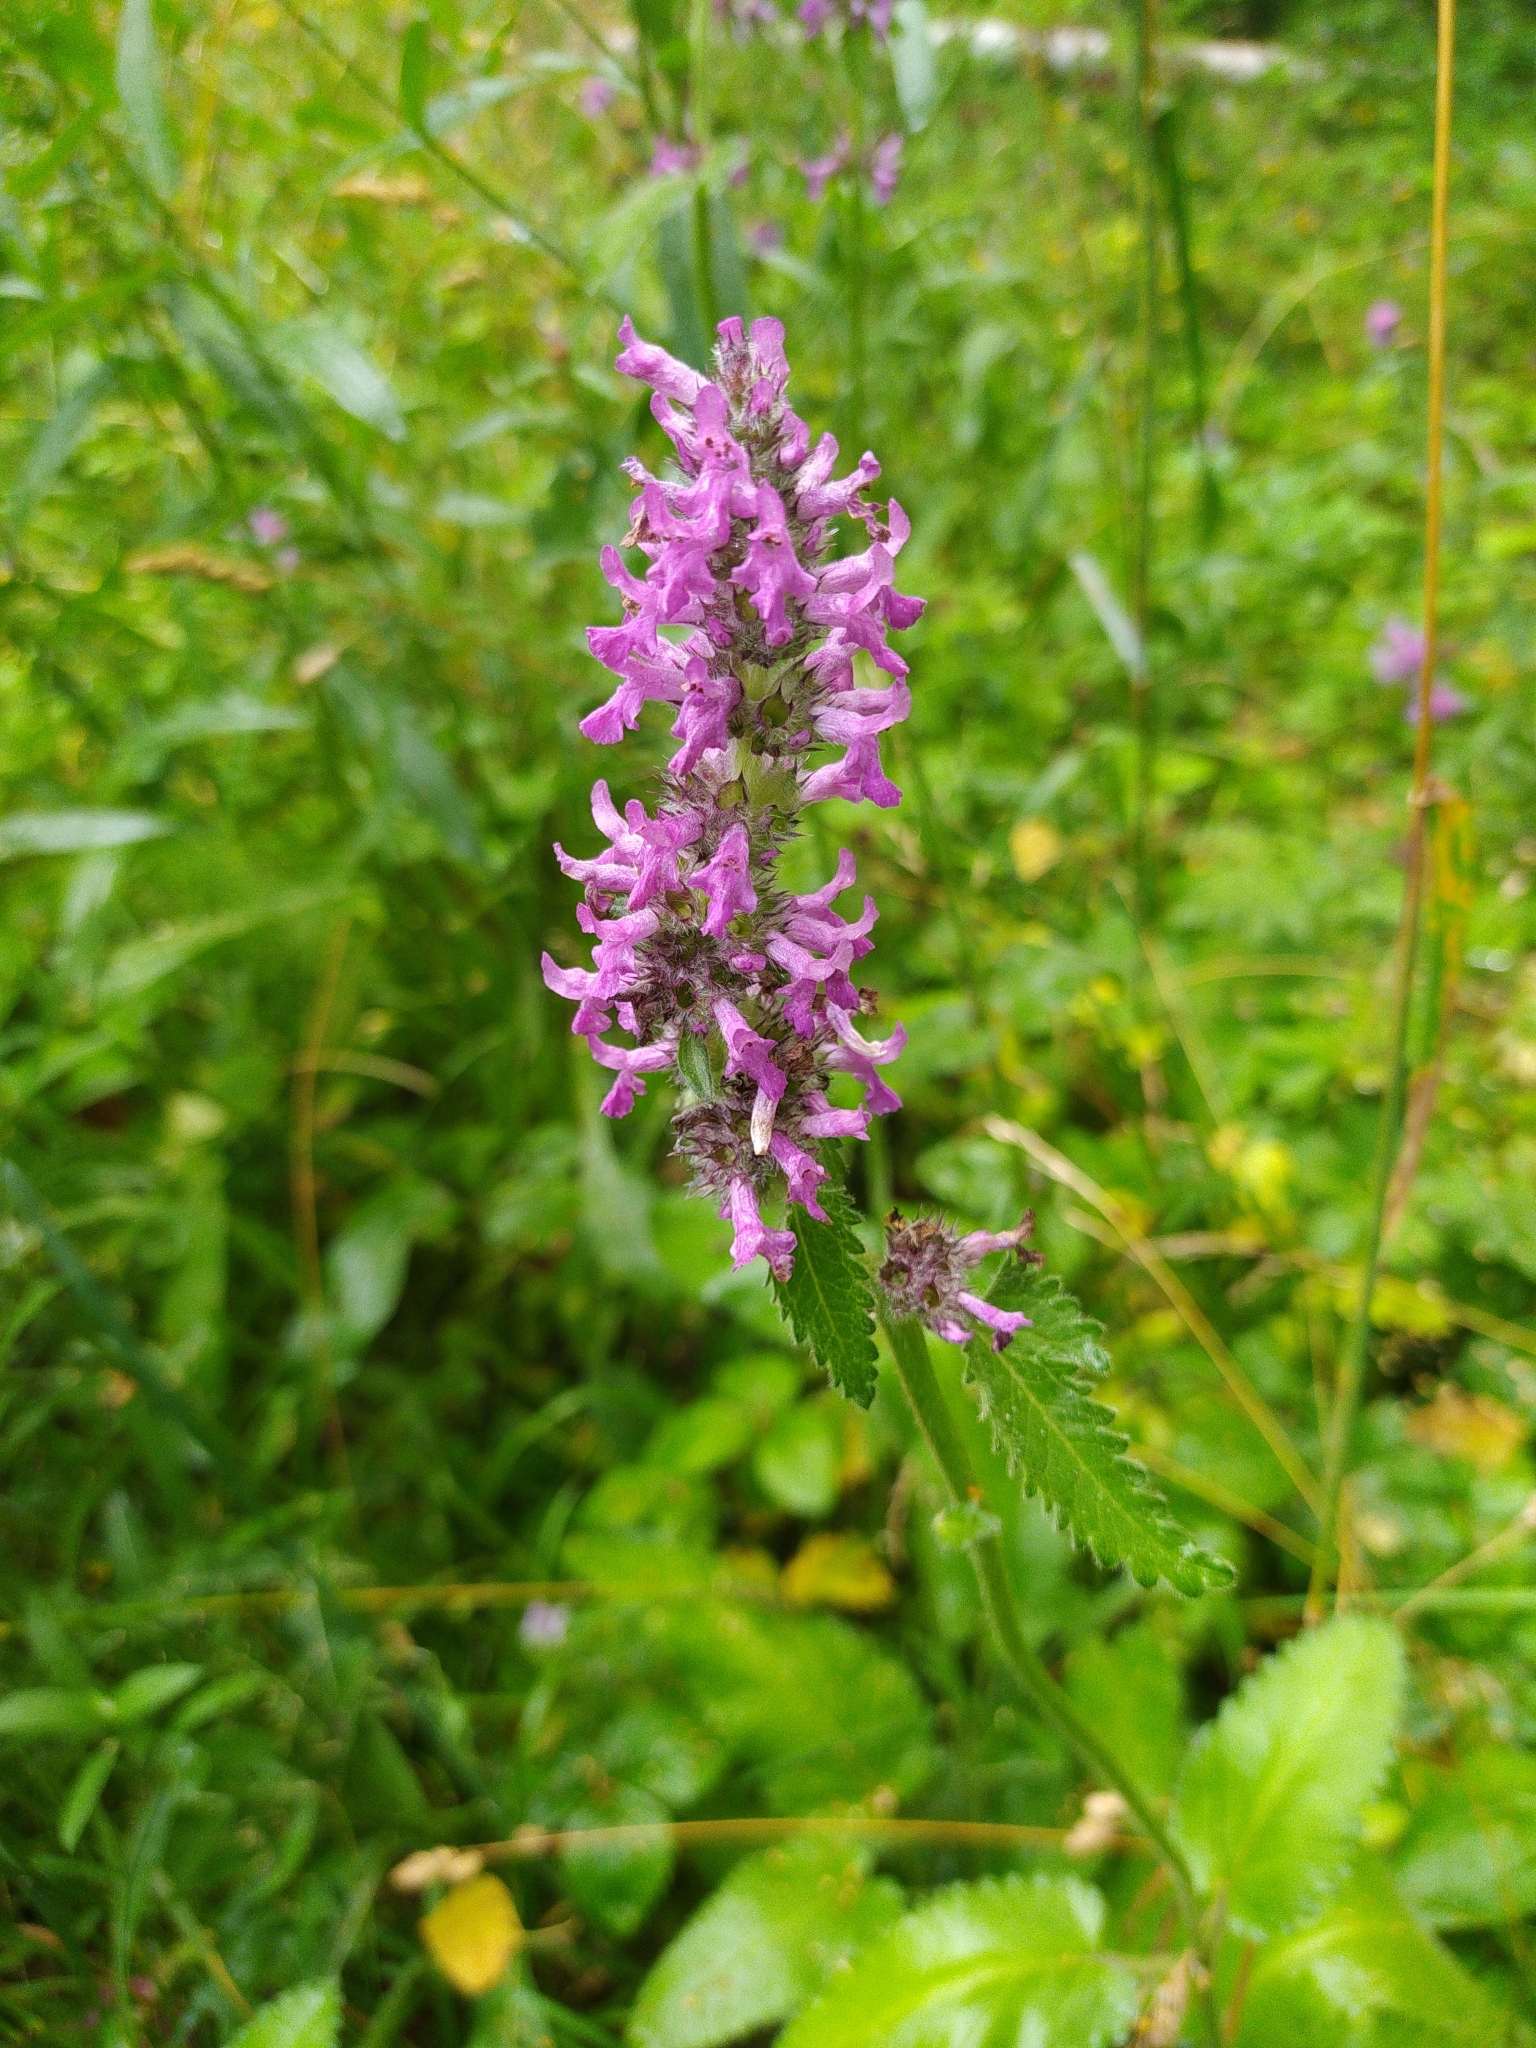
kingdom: Plantae
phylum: Tracheophyta
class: Magnoliopsida
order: Lamiales
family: Lamiaceae
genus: Betonica
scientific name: Betonica officinalis
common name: Bishop's-wort
